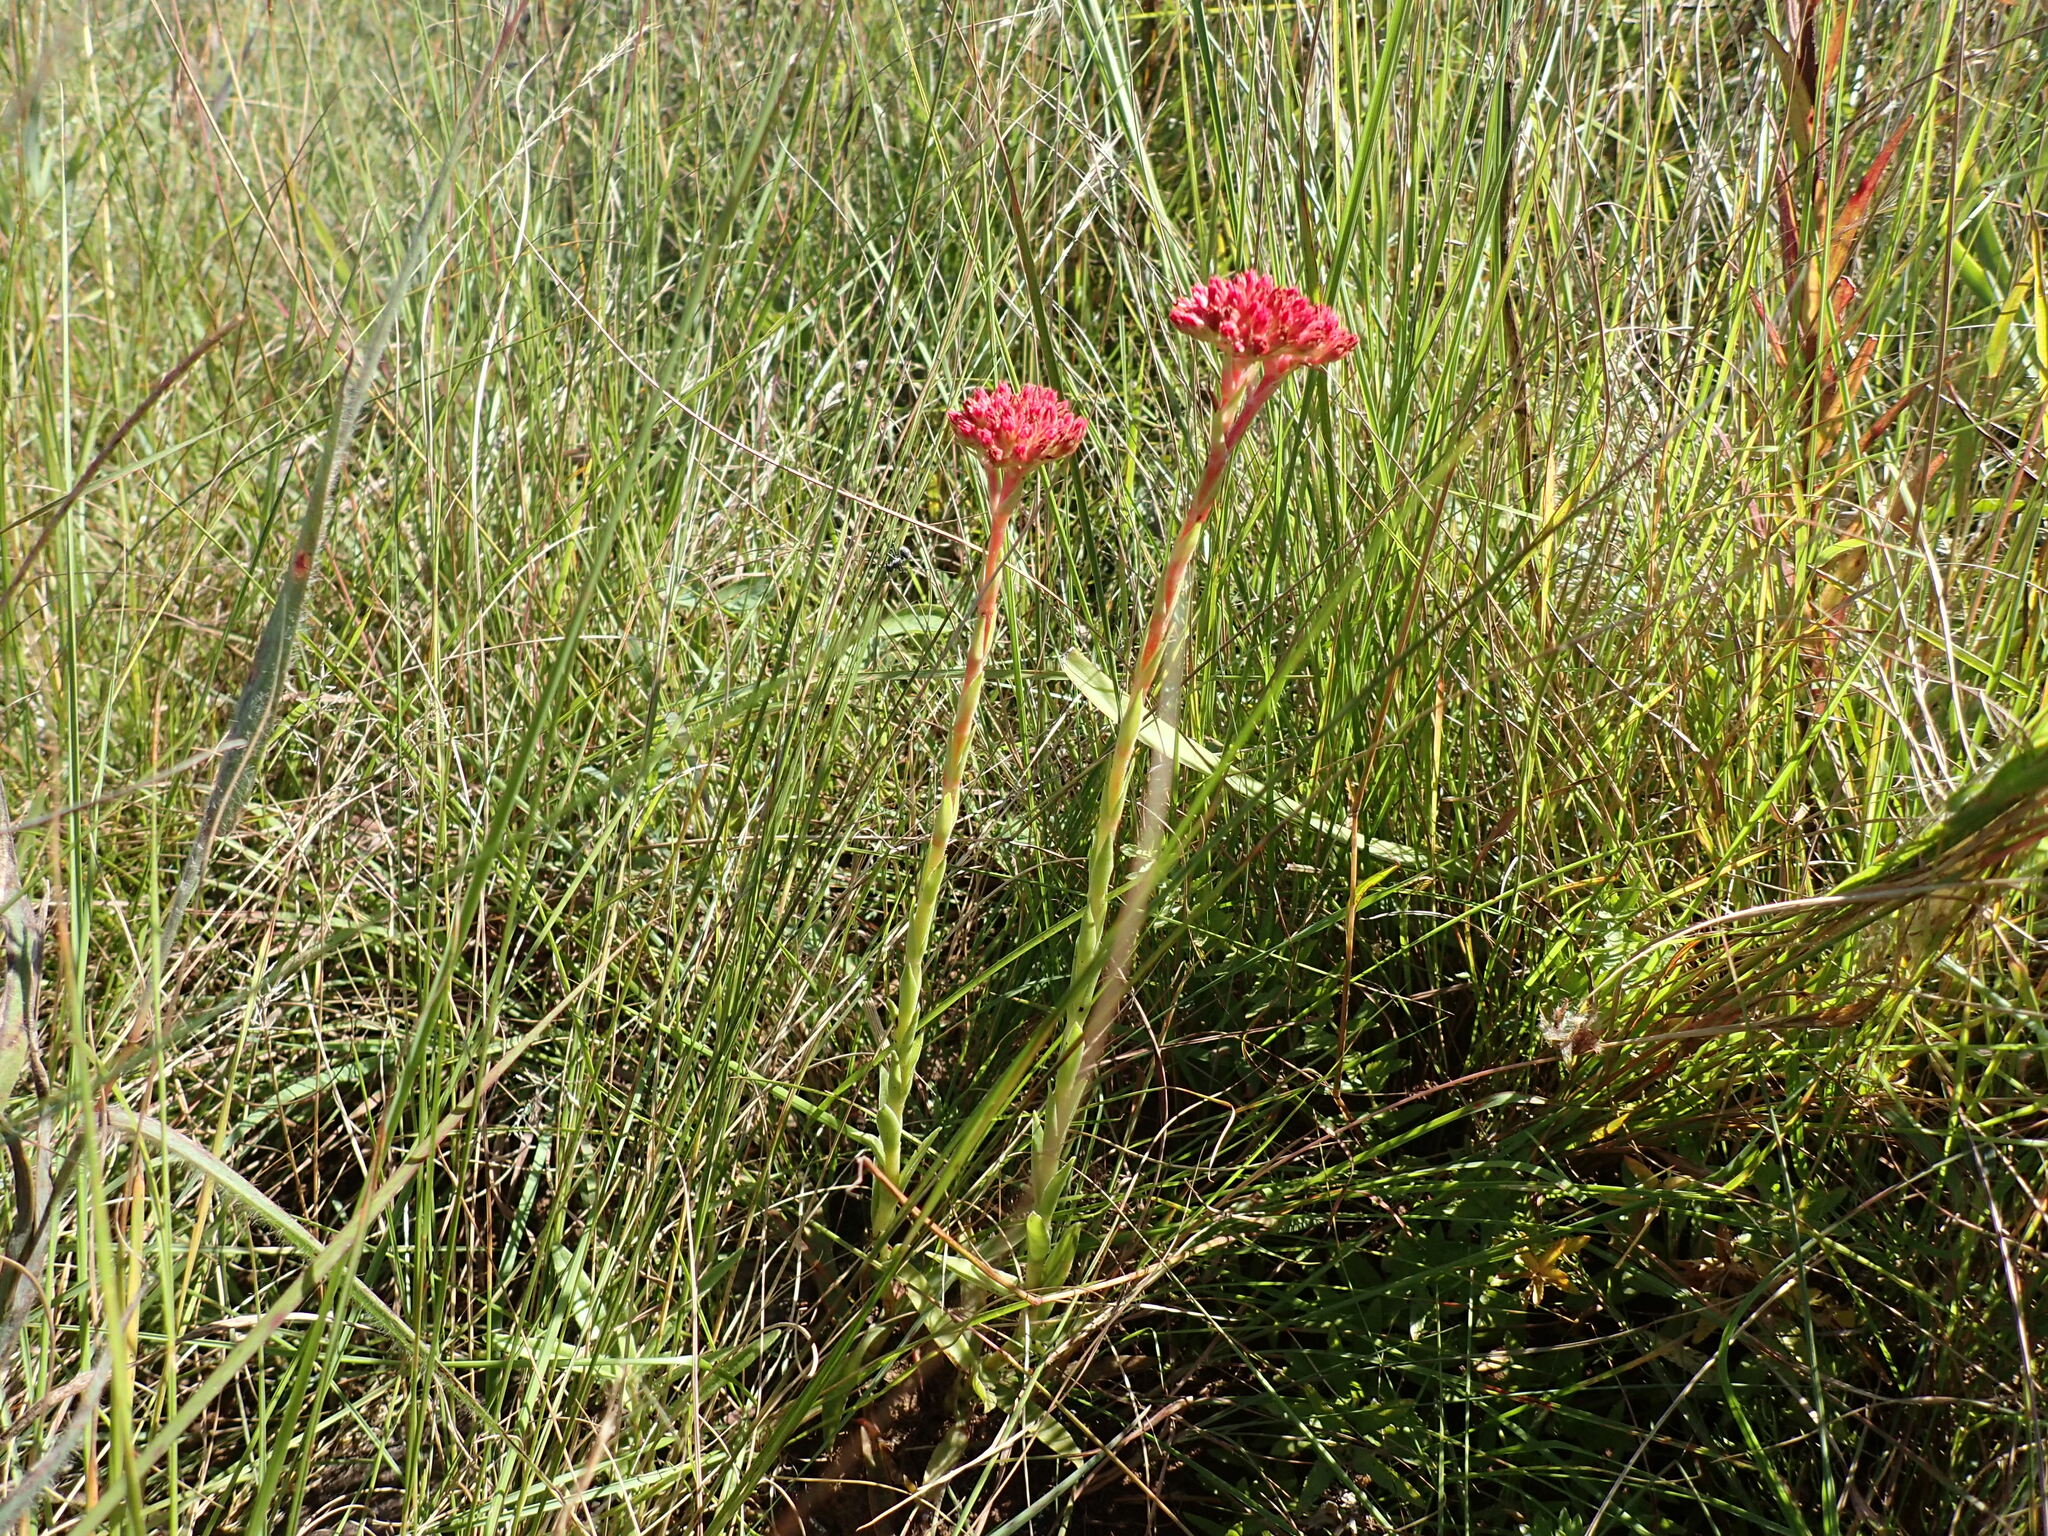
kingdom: Plantae
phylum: Tracheophyta
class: Magnoliopsida
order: Saxifragales
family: Crassulaceae
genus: Crassula
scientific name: Crassula alba
